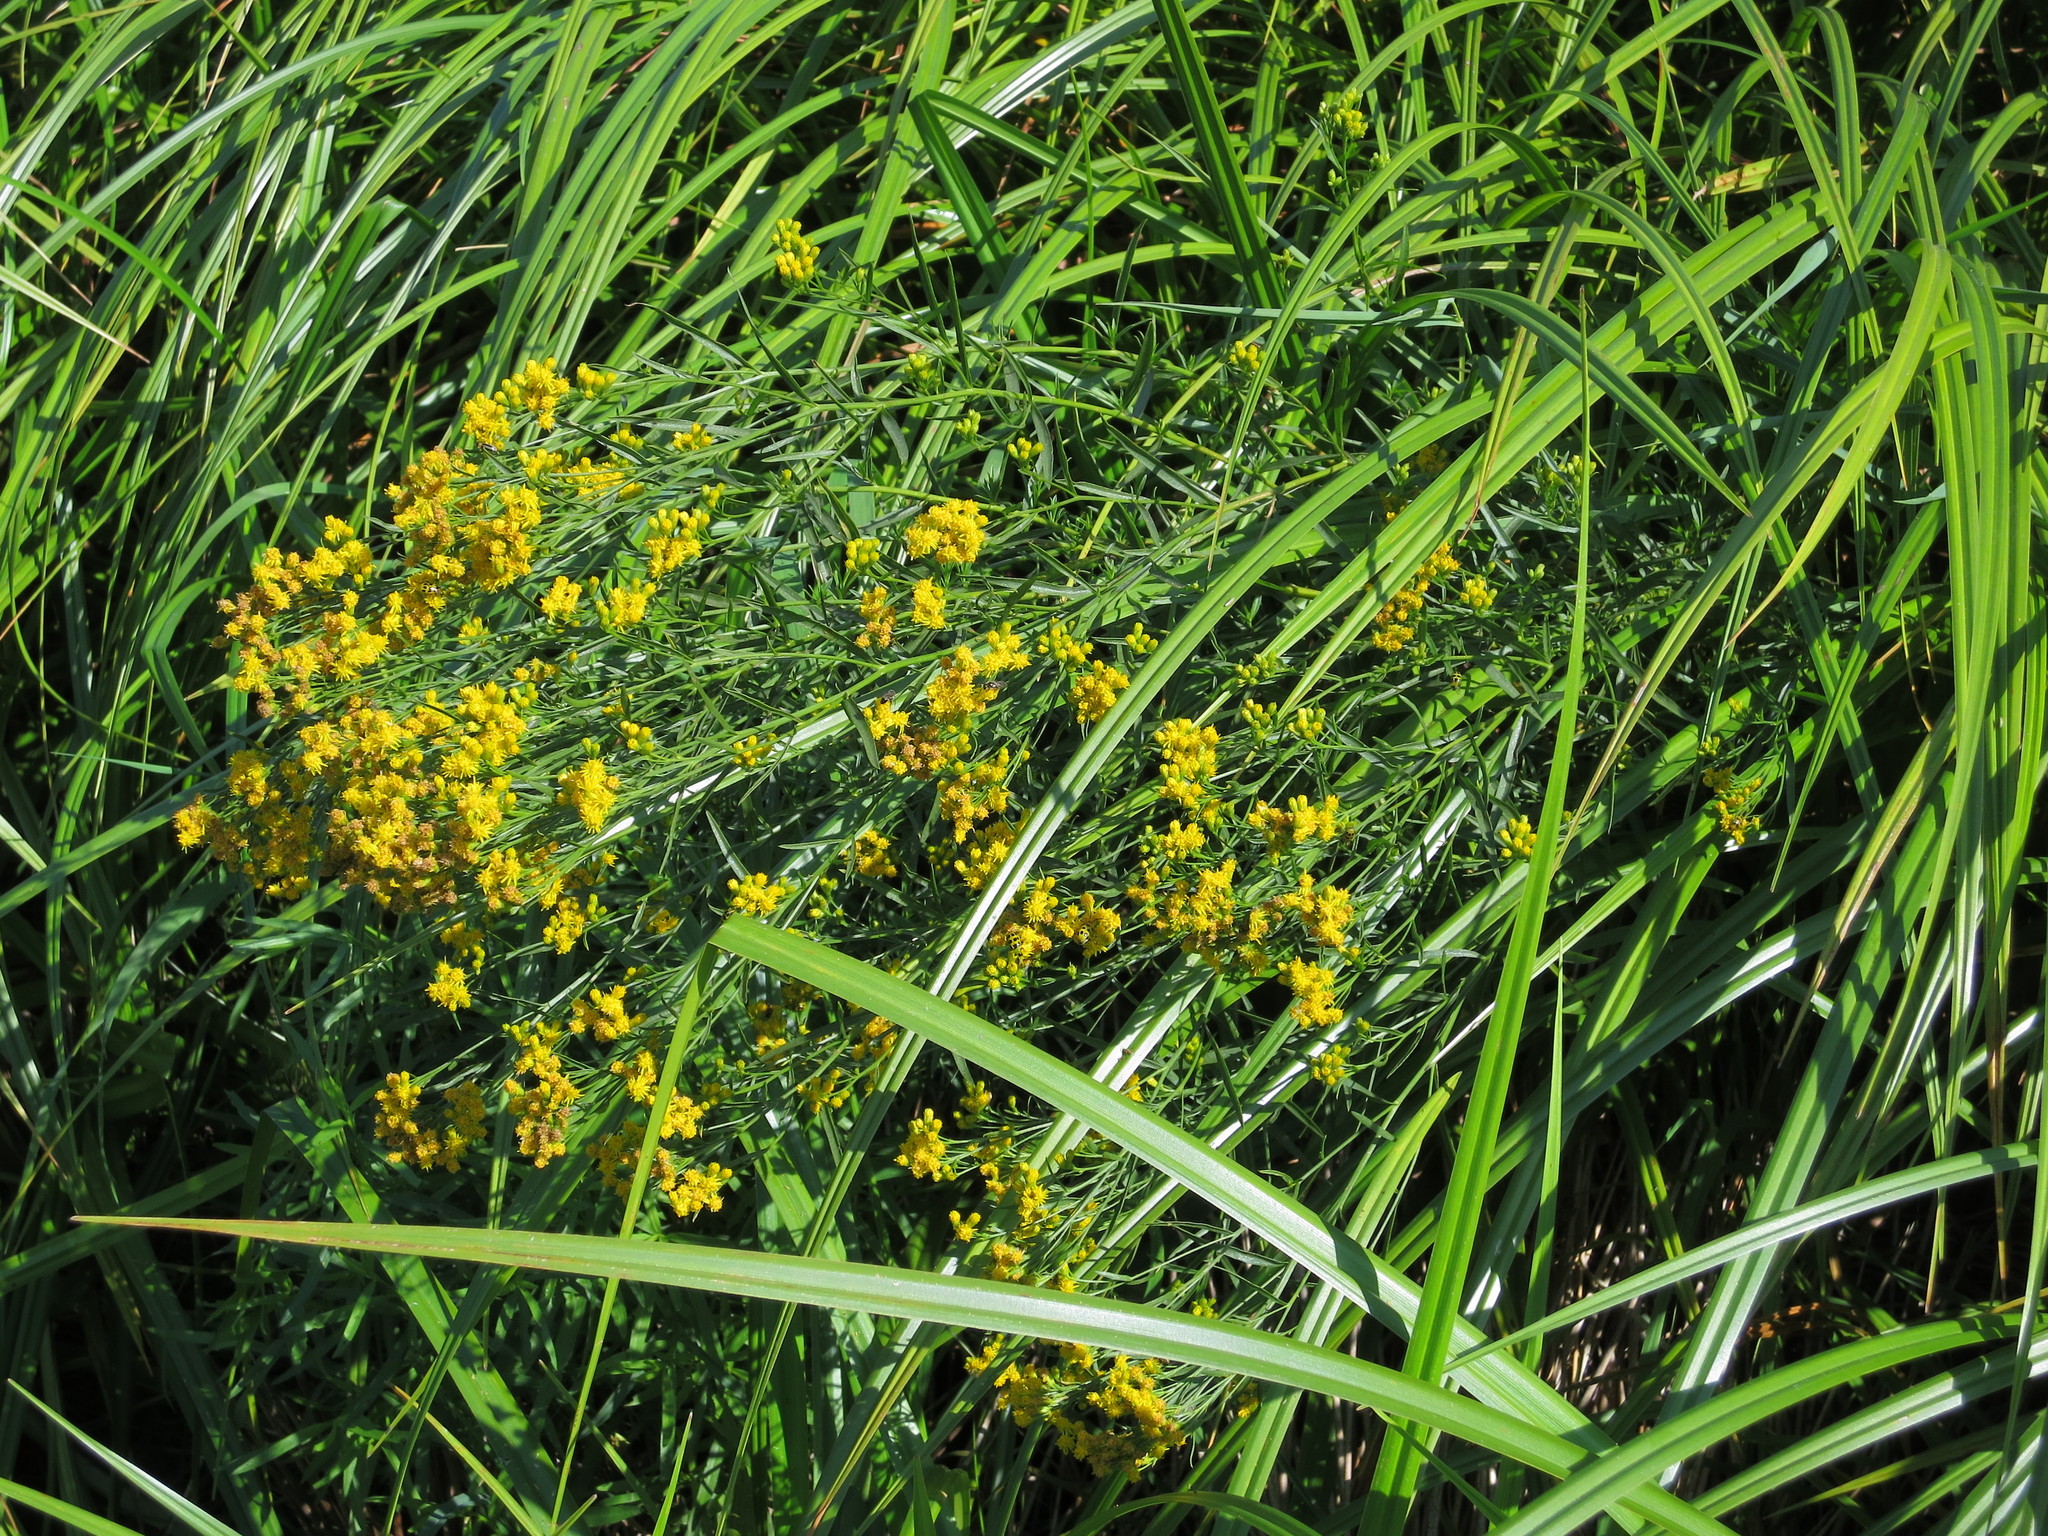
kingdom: Plantae
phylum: Tracheophyta
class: Magnoliopsida
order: Asterales
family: Asteraceae
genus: Euthamia
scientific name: Euthamia occidentalis
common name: Western goldentop
